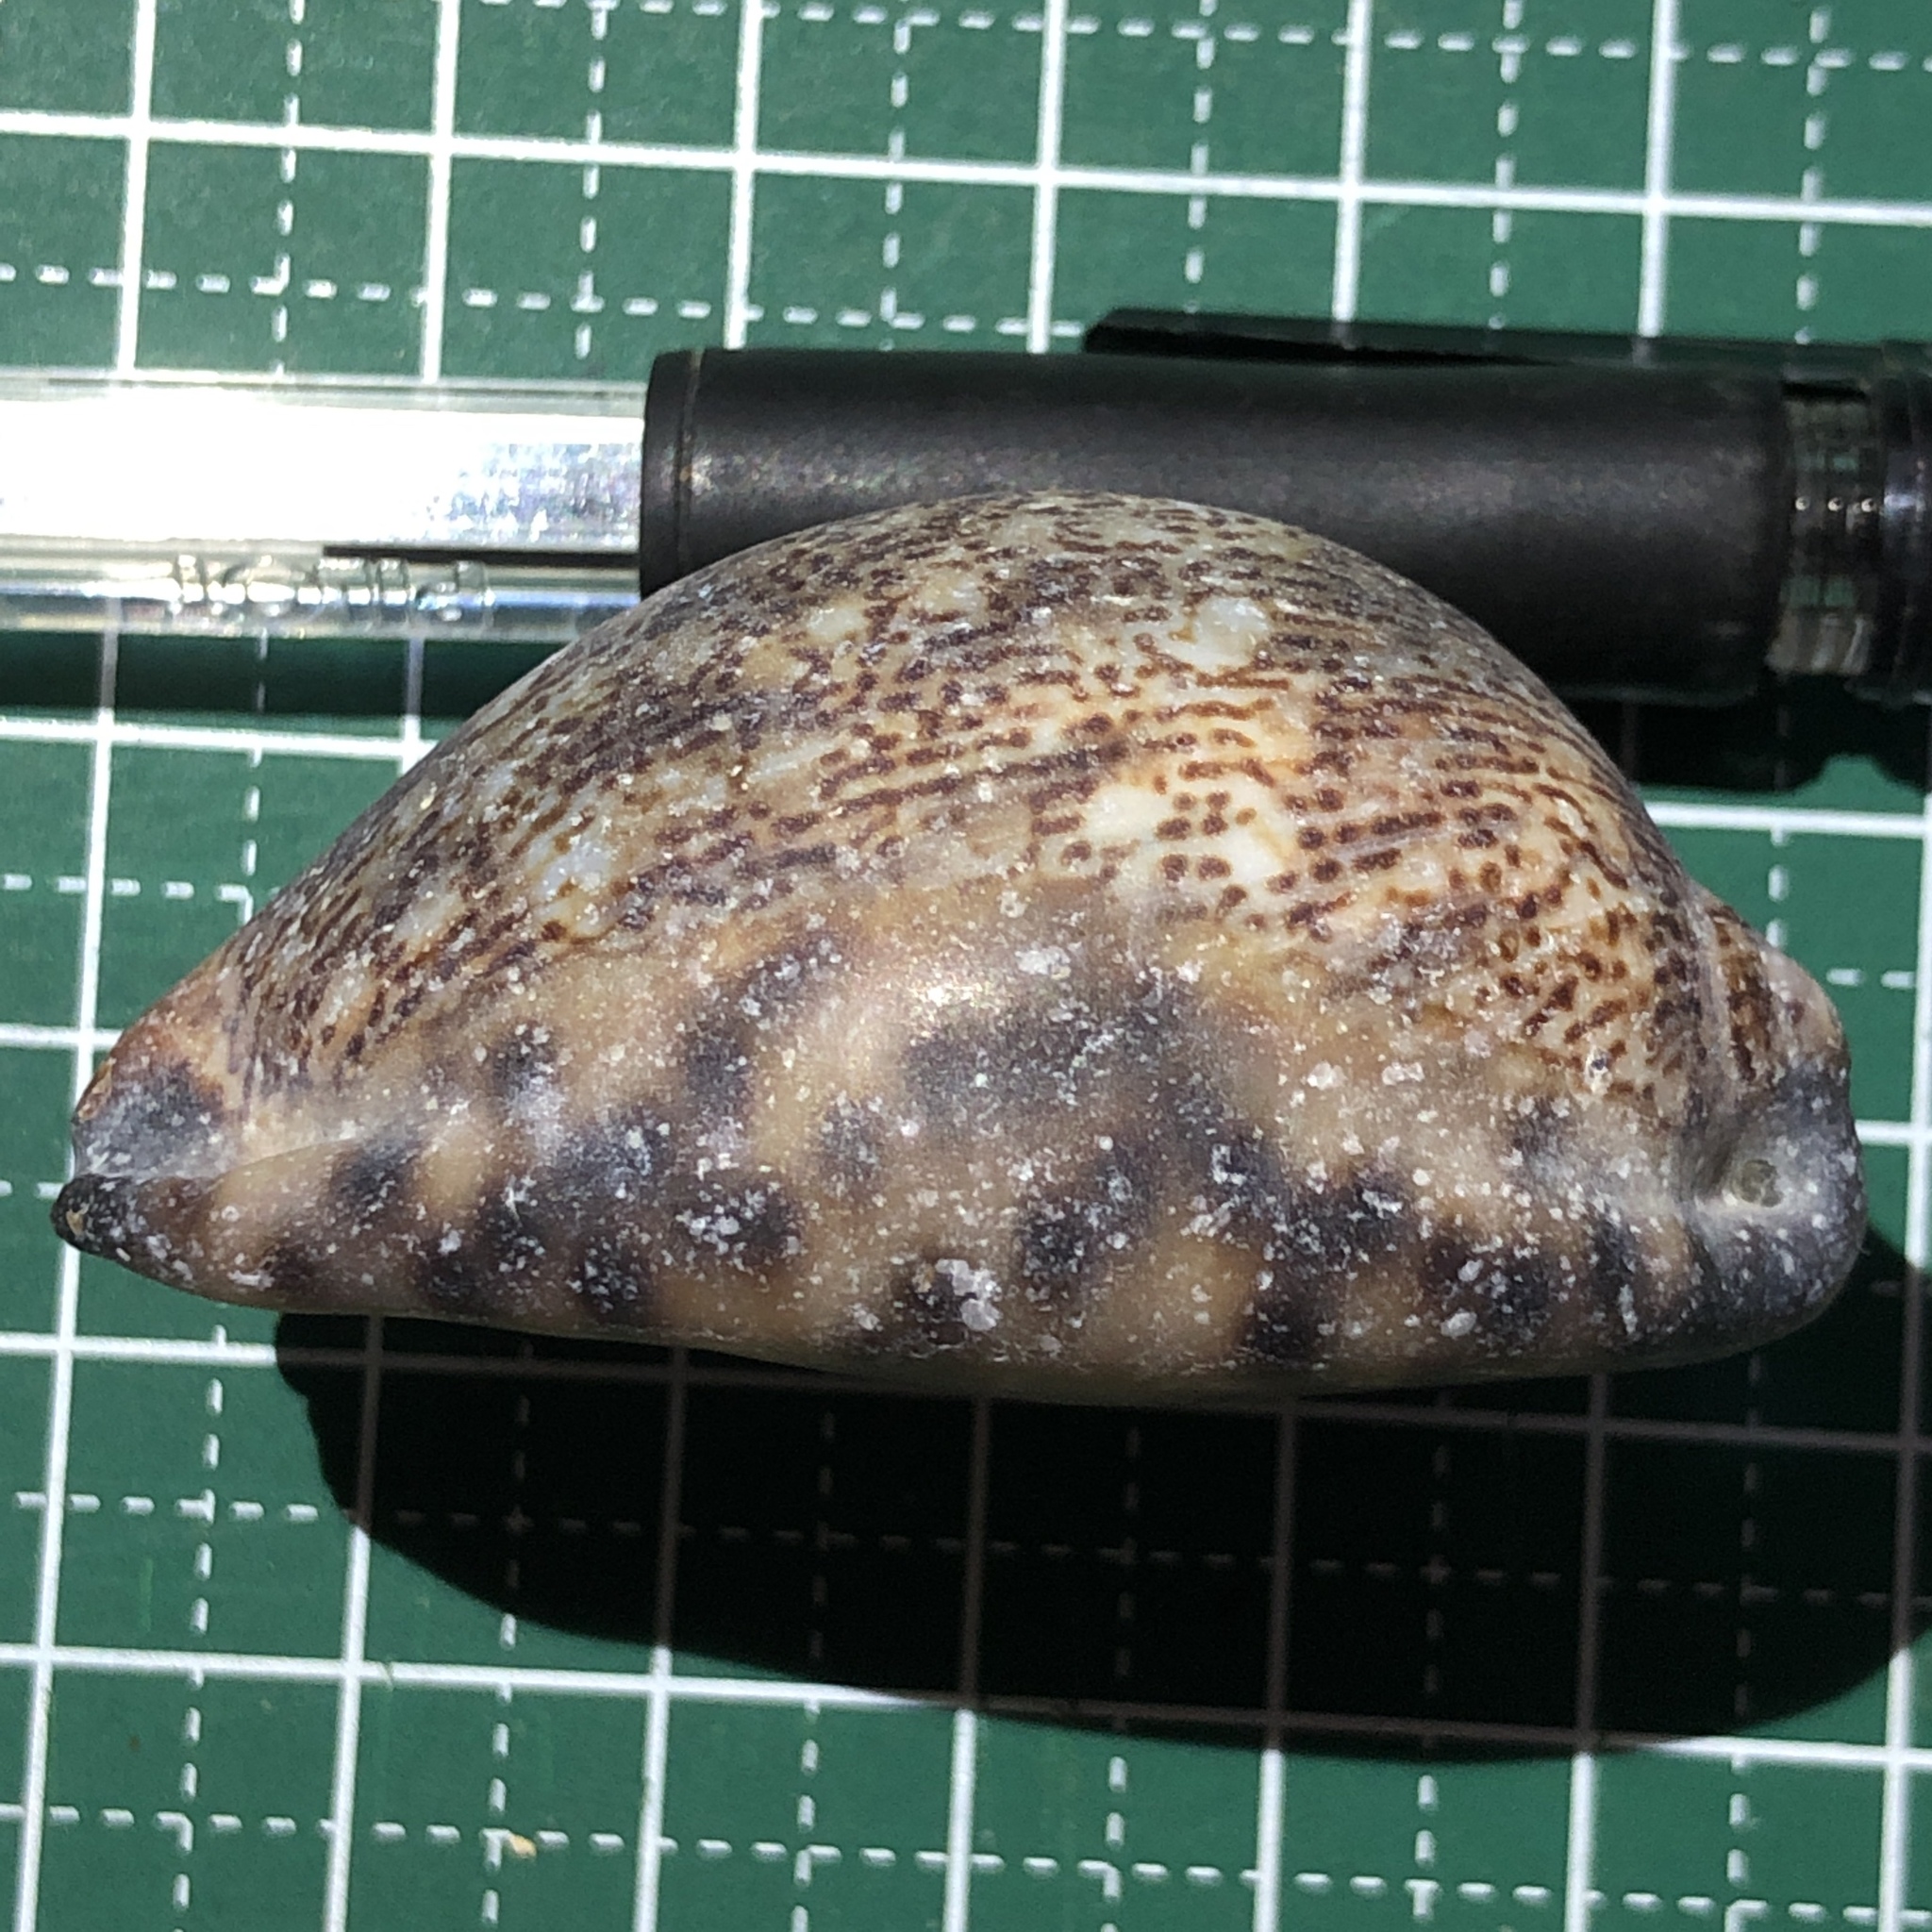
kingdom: Animalia
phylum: Mollusca
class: Gastropoda
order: Littorinimorpha
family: Cypraeidae
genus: Mauritia
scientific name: Mauritia arabica
